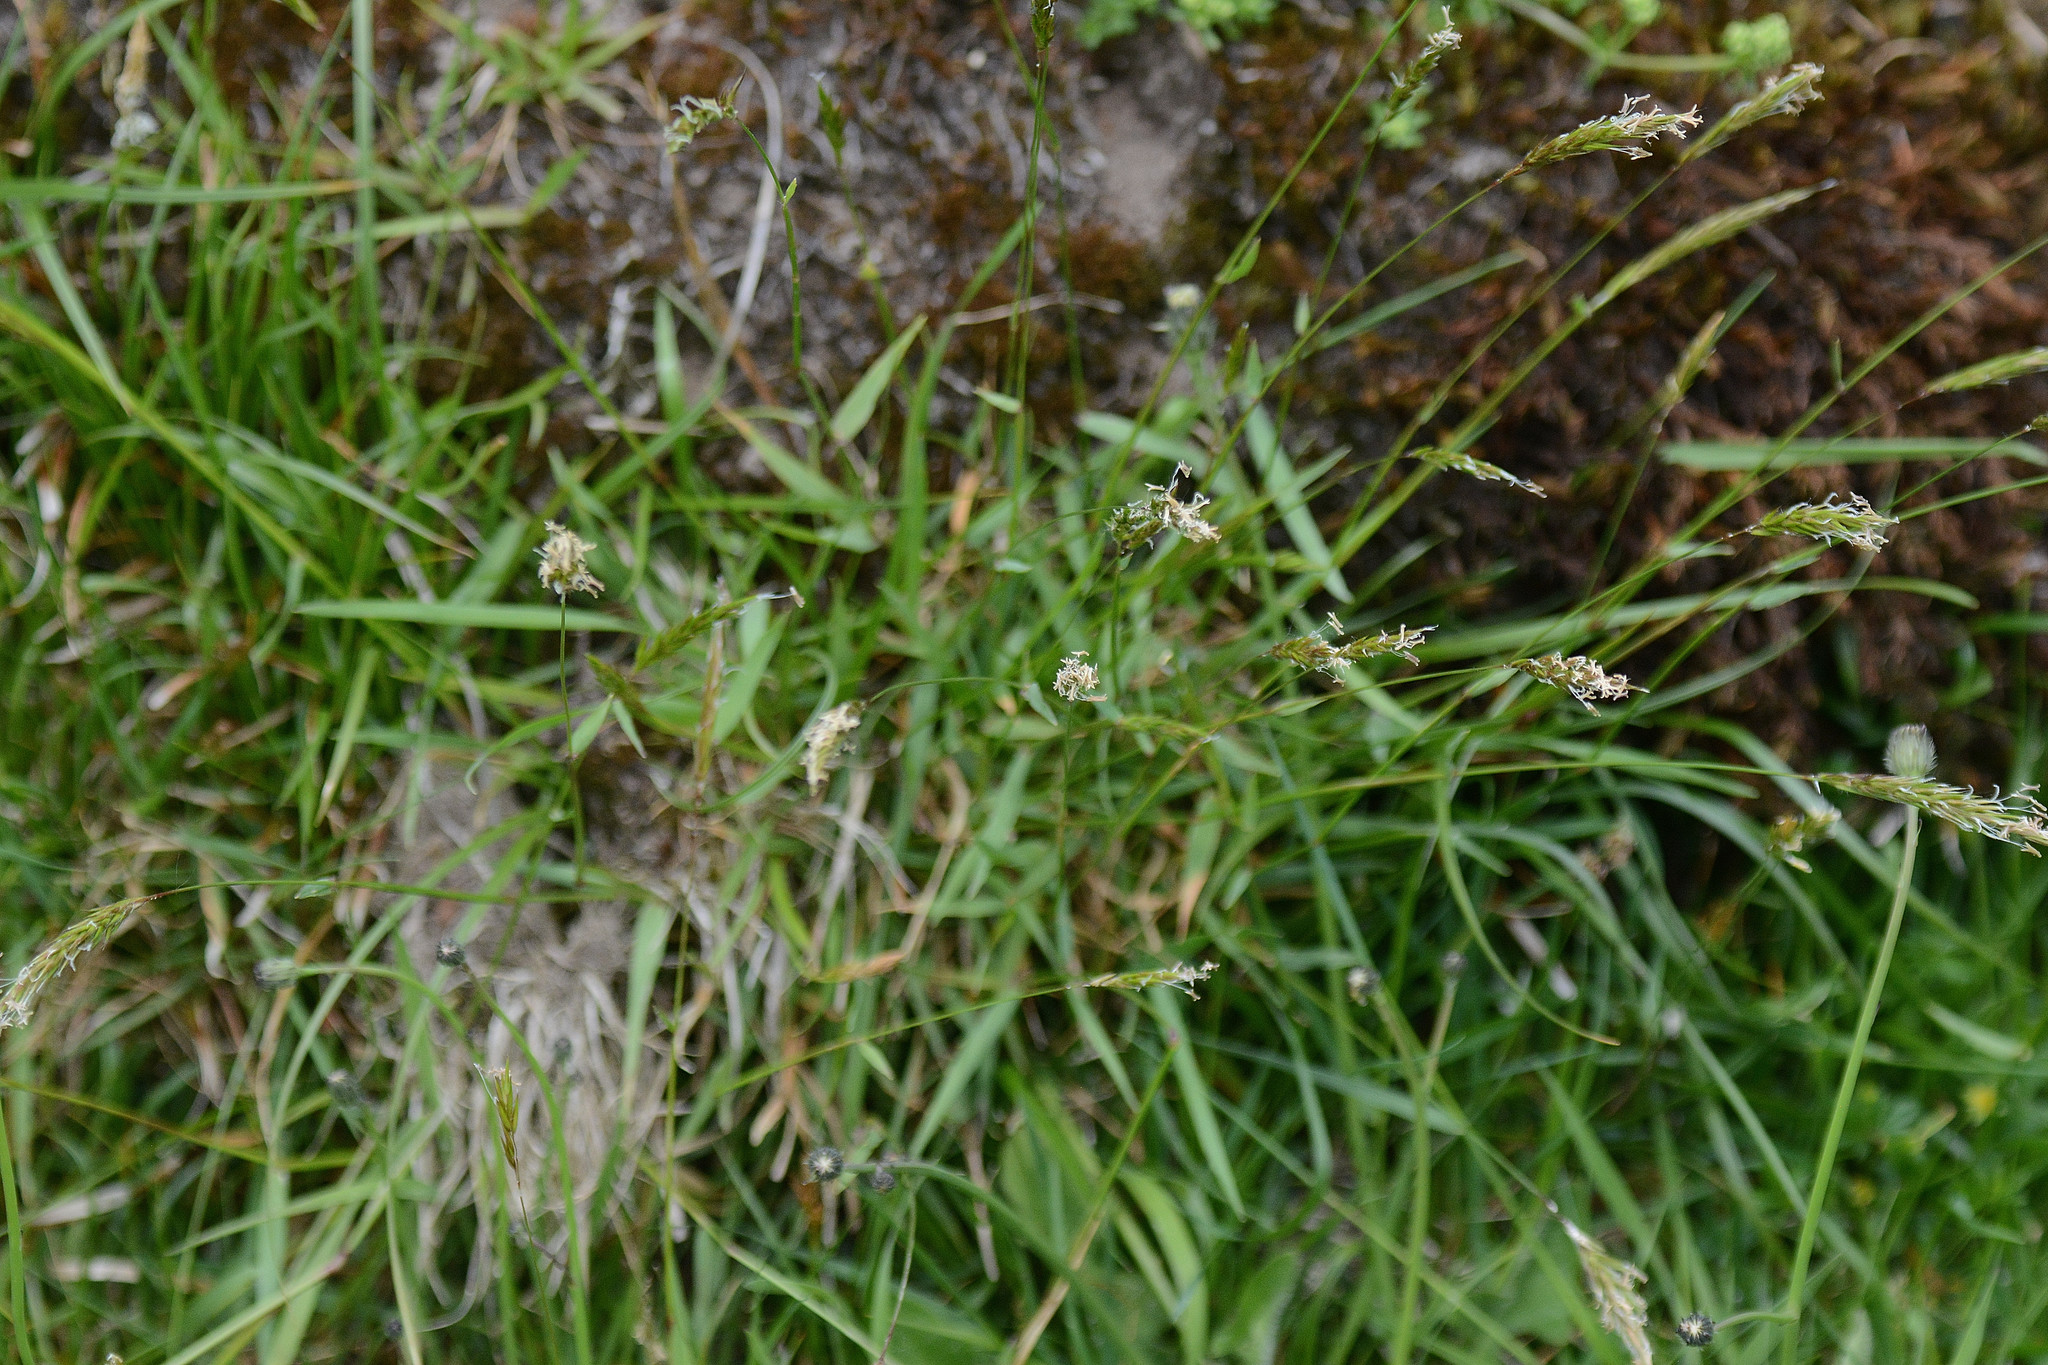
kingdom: Plantae
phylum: Tracheophyta
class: Liliopsida
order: Poales
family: Poaceae
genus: Anthoxanthum
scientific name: Anthoxanthum odoratum
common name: Sweet vernalgrass
